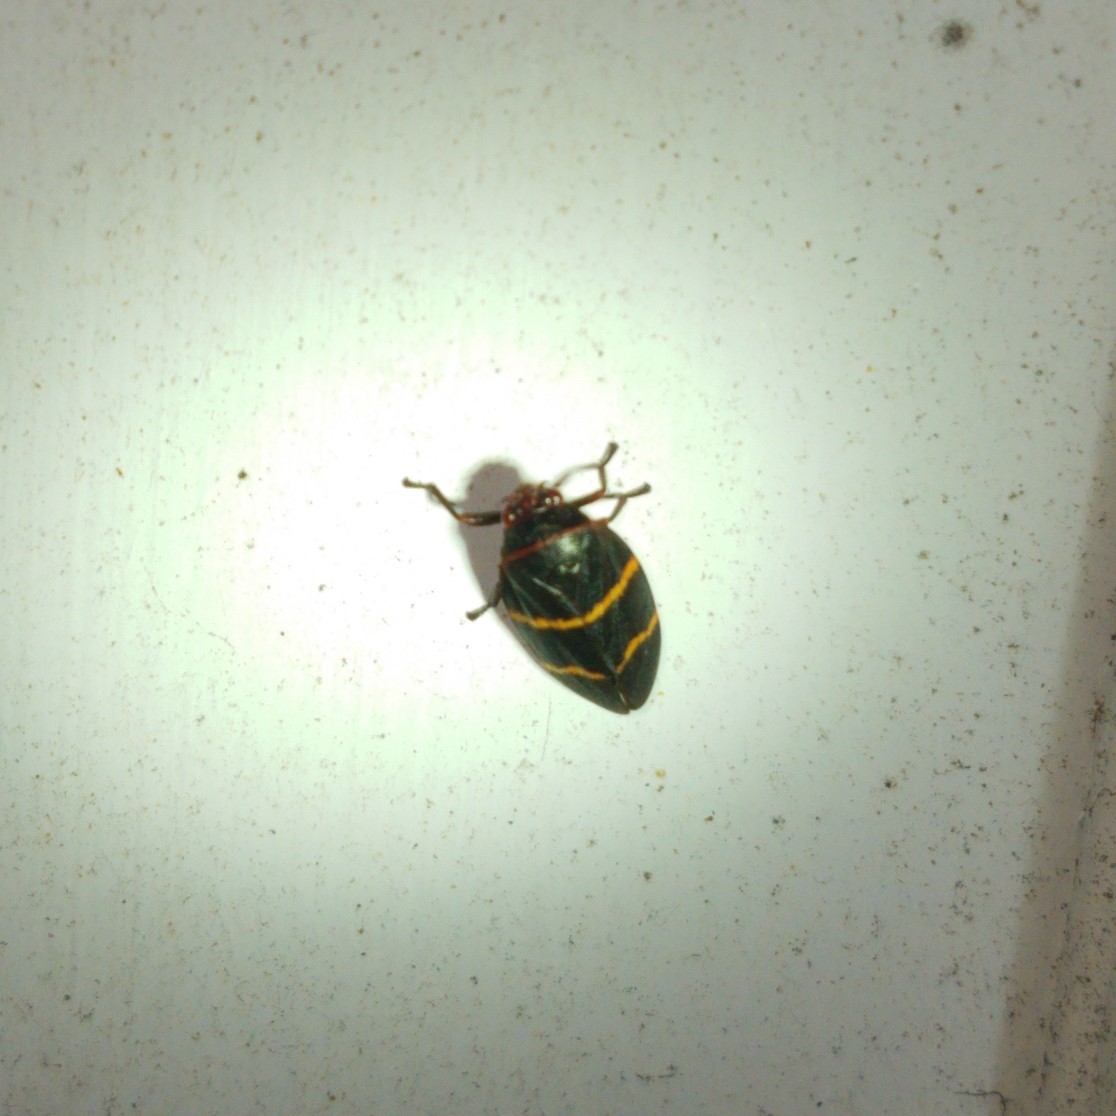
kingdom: Animalia
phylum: Arthropoda
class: Insecta
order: Hemiptera
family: Cercopidae
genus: Prosapia
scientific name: Prosapia bicincta
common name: Twolined spittlebug
